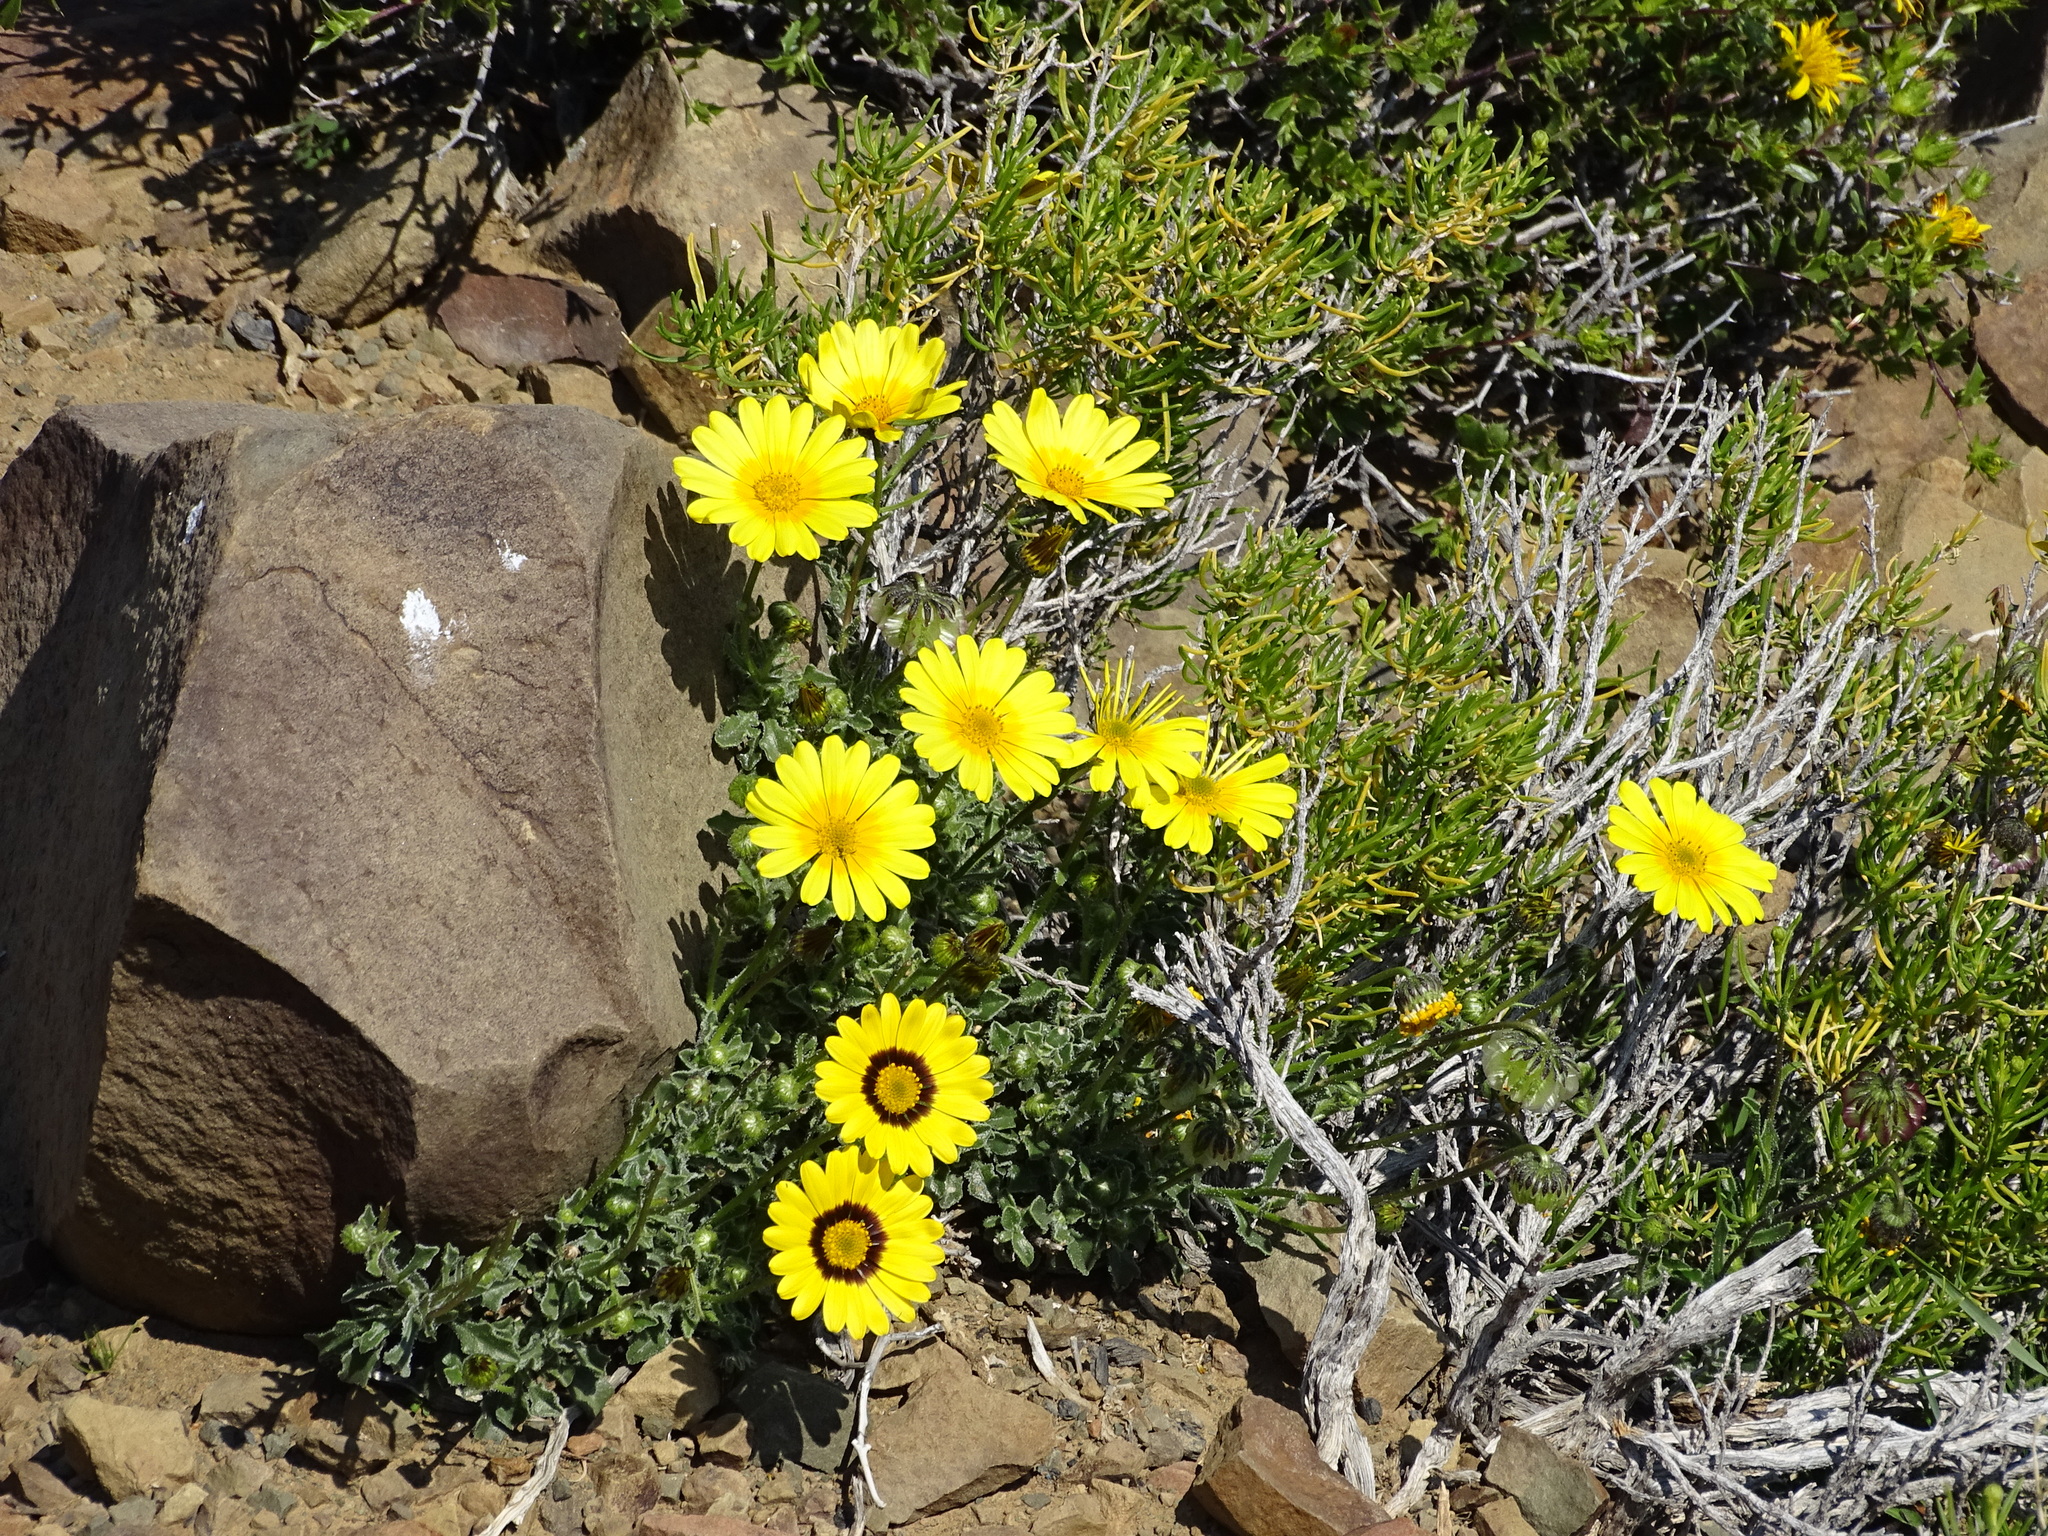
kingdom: Plantae
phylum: Tracheophyta
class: Magnoliopsida
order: Asterales
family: Asteraceae
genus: Osteospermum
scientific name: Osteospermum scariosum
